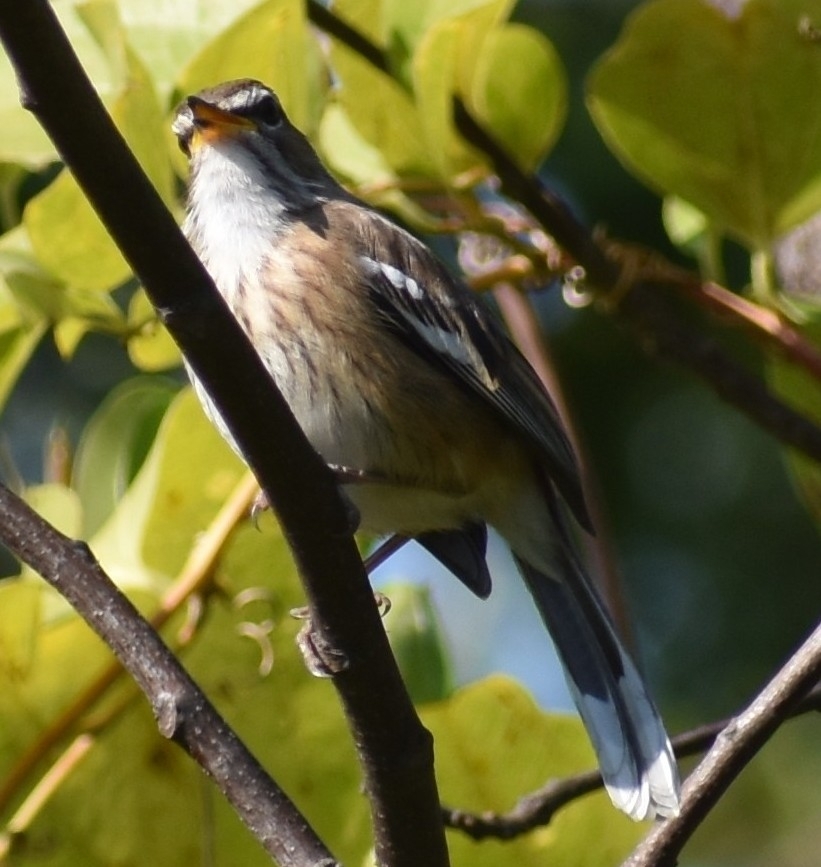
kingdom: Animalia
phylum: Chordata
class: Aves
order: Passeriformes
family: Muscicapidae
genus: Erythropygia
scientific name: Erythropygia leucophrys
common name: White-browed scrub robin
